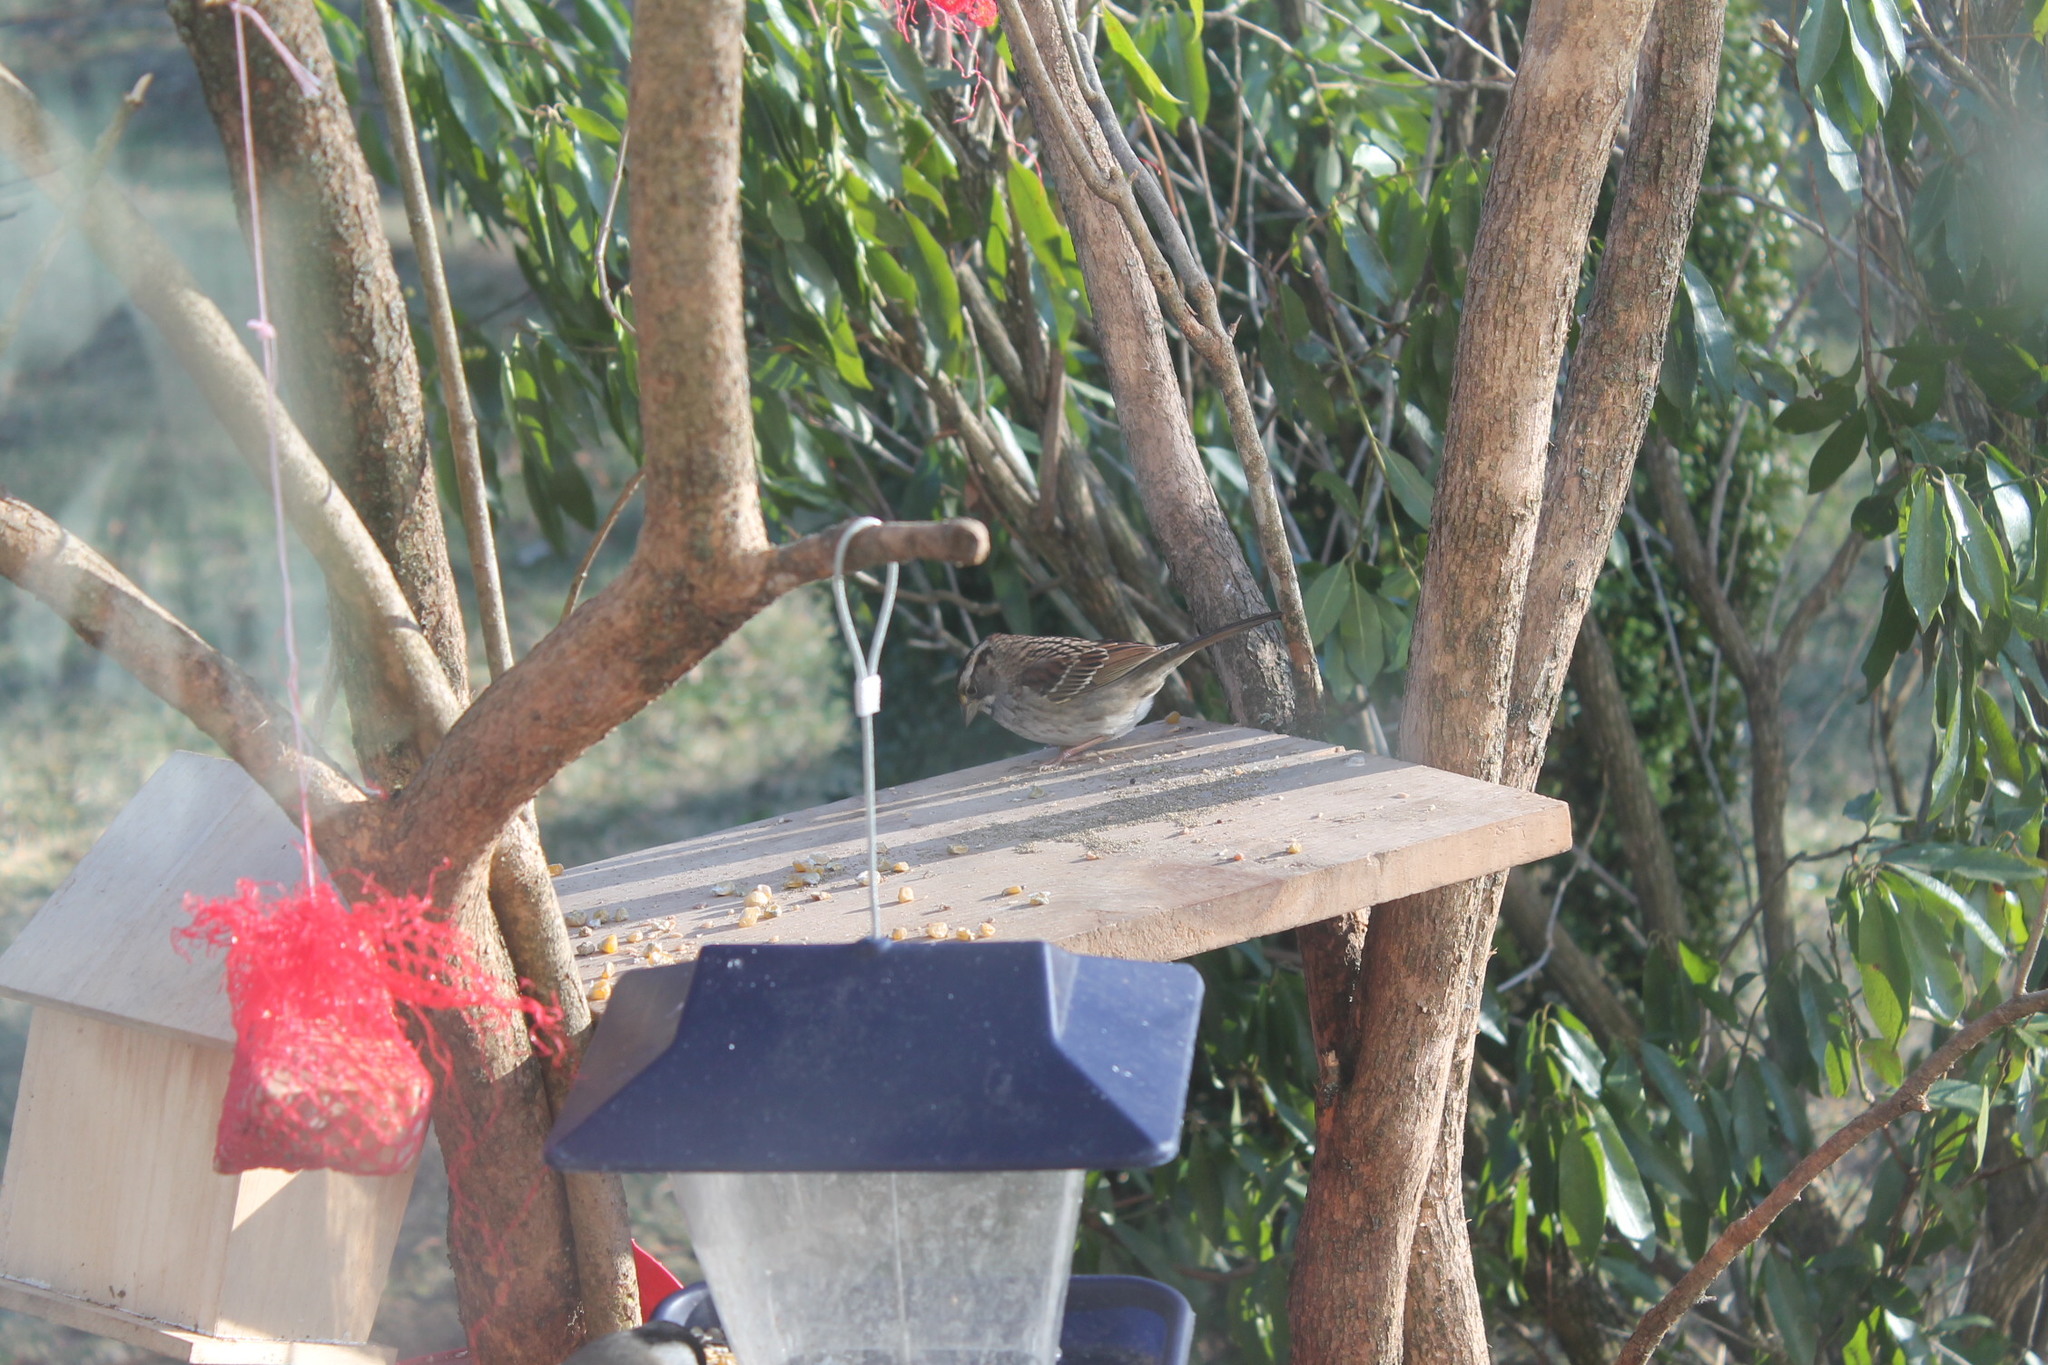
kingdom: Animalia
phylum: Chordata
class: Aves
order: Passeriformes
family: Passerellidae
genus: Zonotrichia
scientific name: Zonotrichia albicollis
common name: White-throated sparrow
